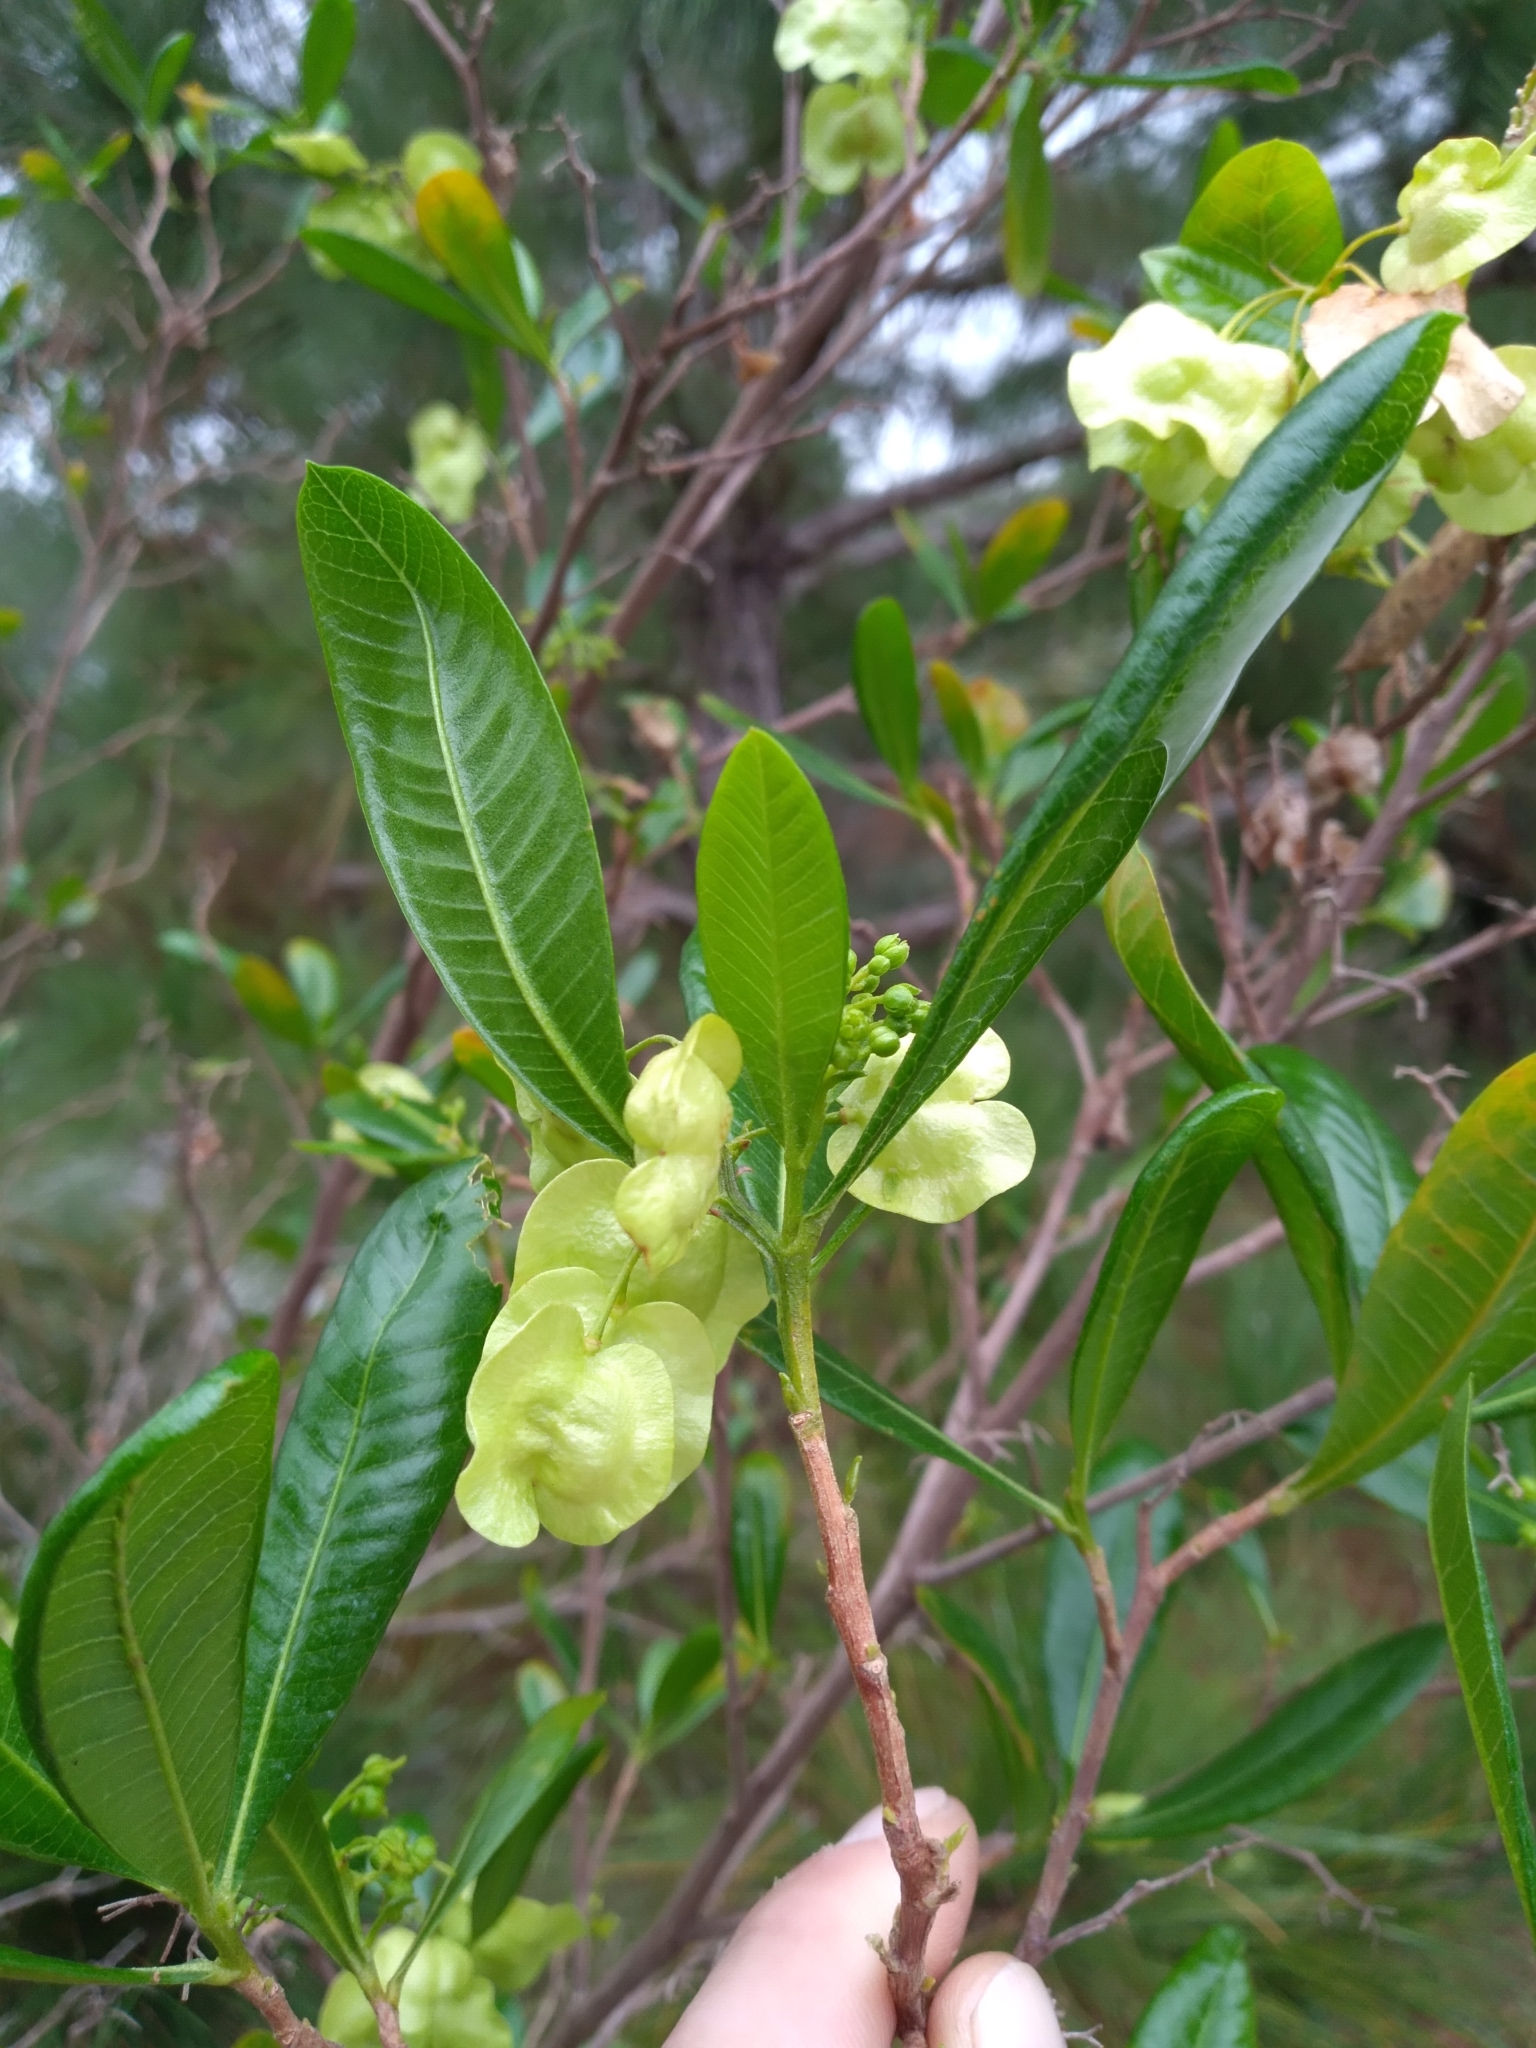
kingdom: Plantae
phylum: Tracheophyta
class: Magnoliopsida
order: Sapindales
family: Sapindaceae
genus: Dodonaea
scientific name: Dodonaea viscosa
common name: Hopbush
